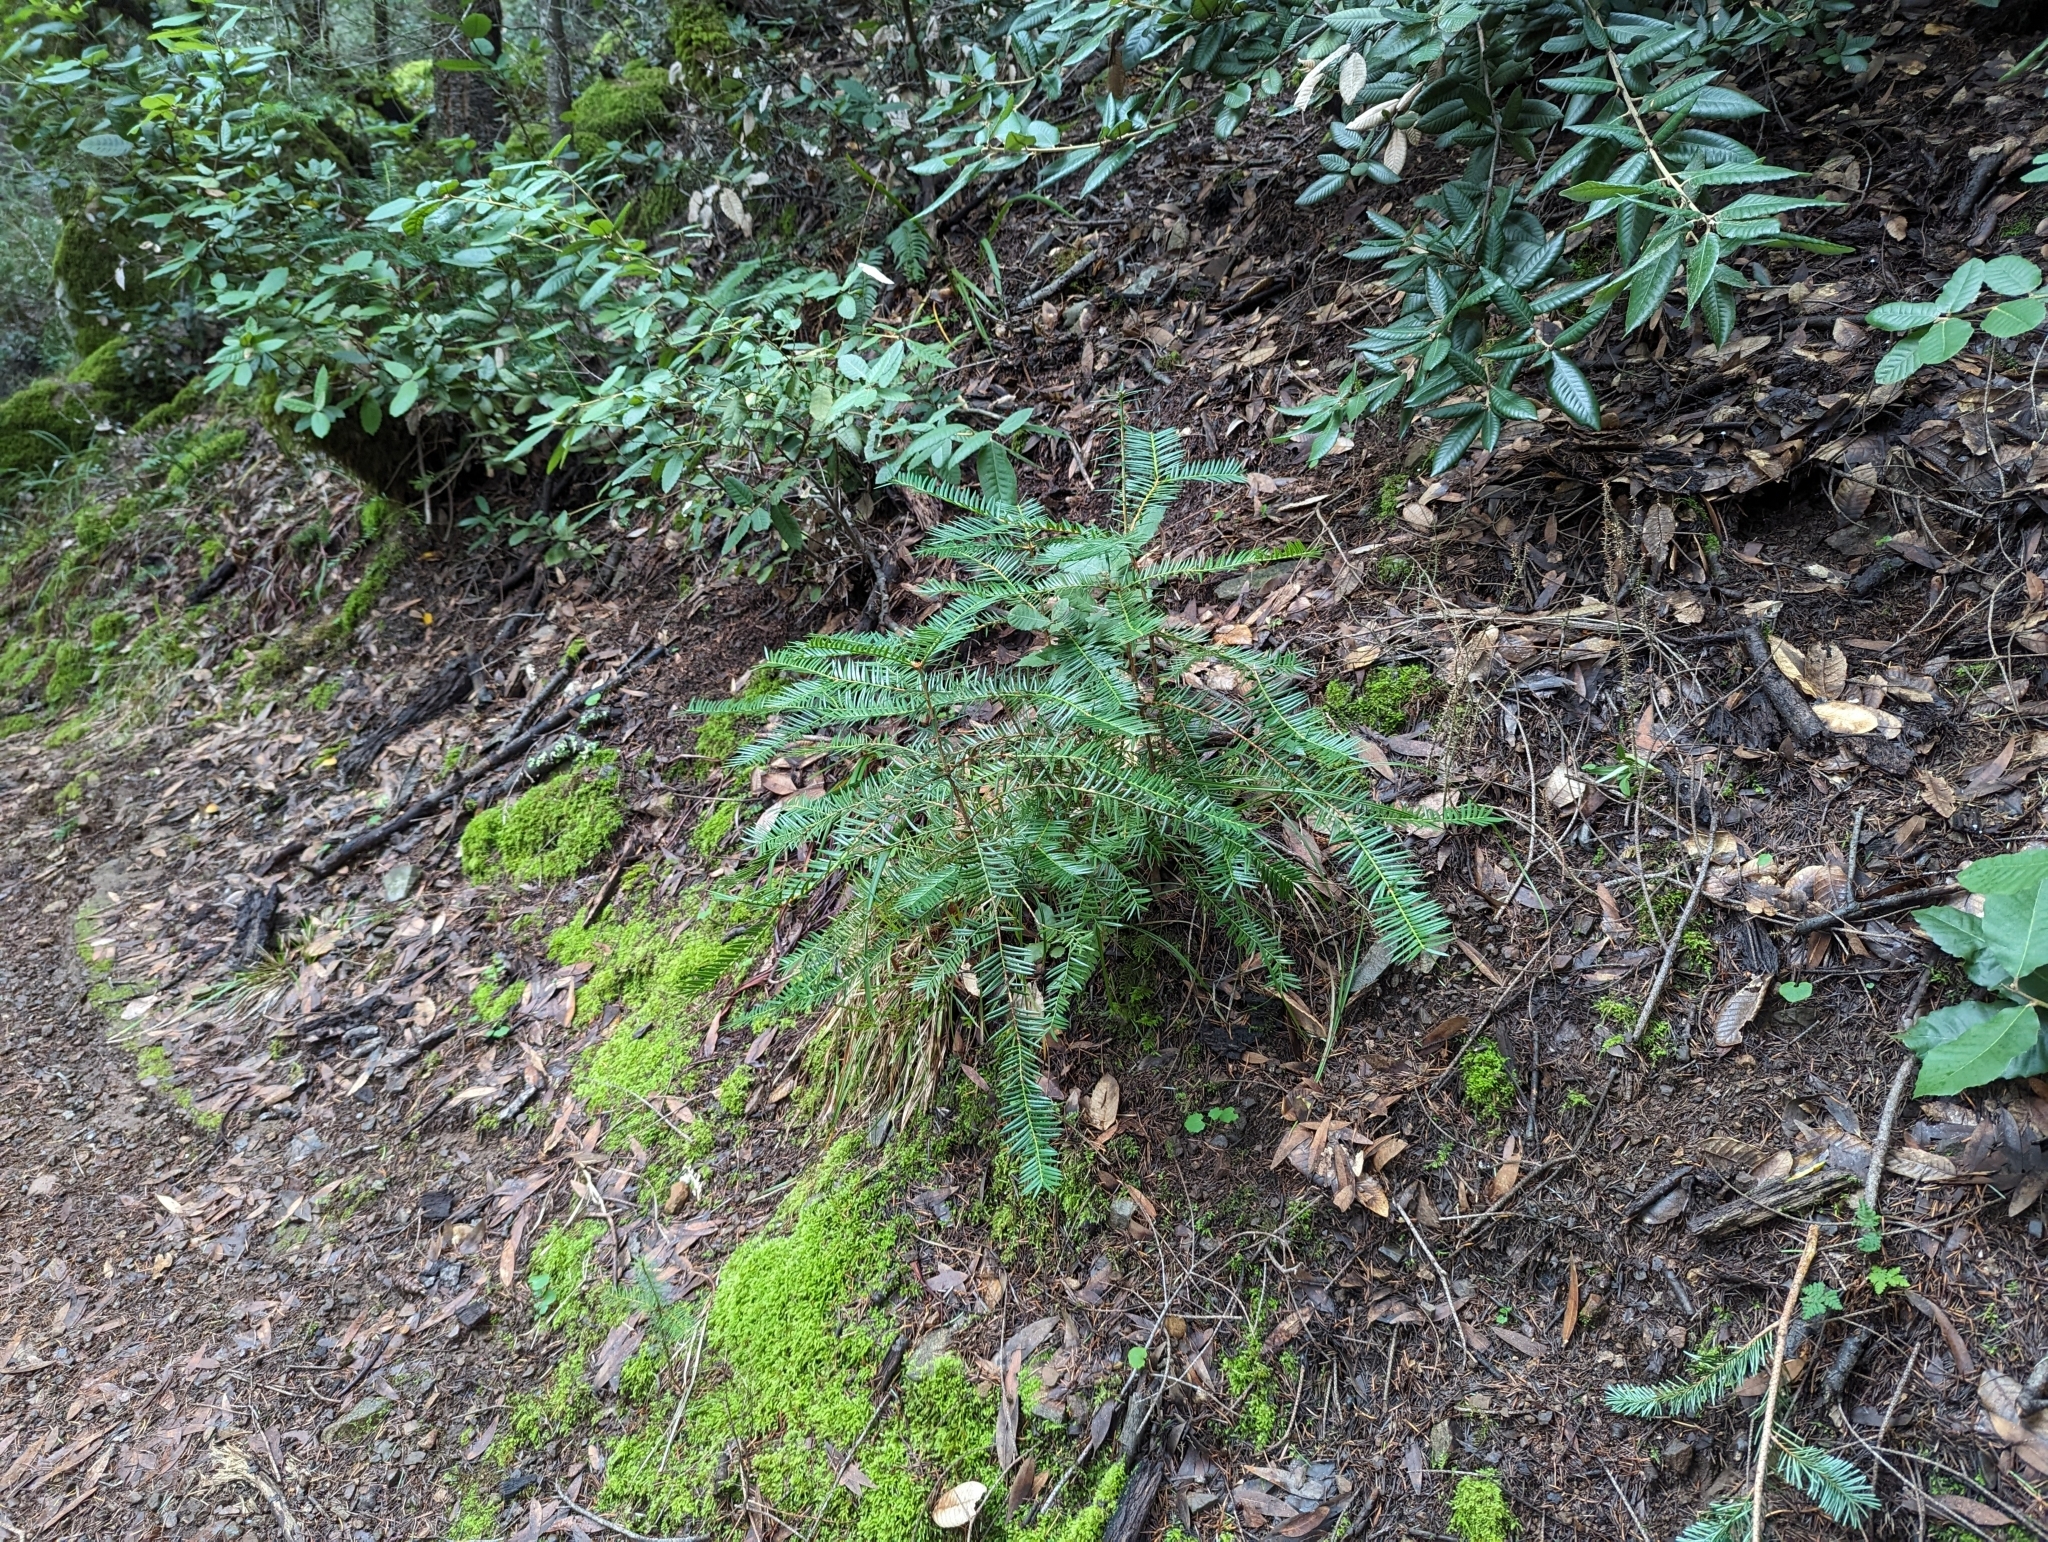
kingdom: Plantae
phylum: Tracheophyta
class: Pinopsida
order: Pinales
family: Taxaceae
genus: Torreya
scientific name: Torreya californica
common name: California torreya
